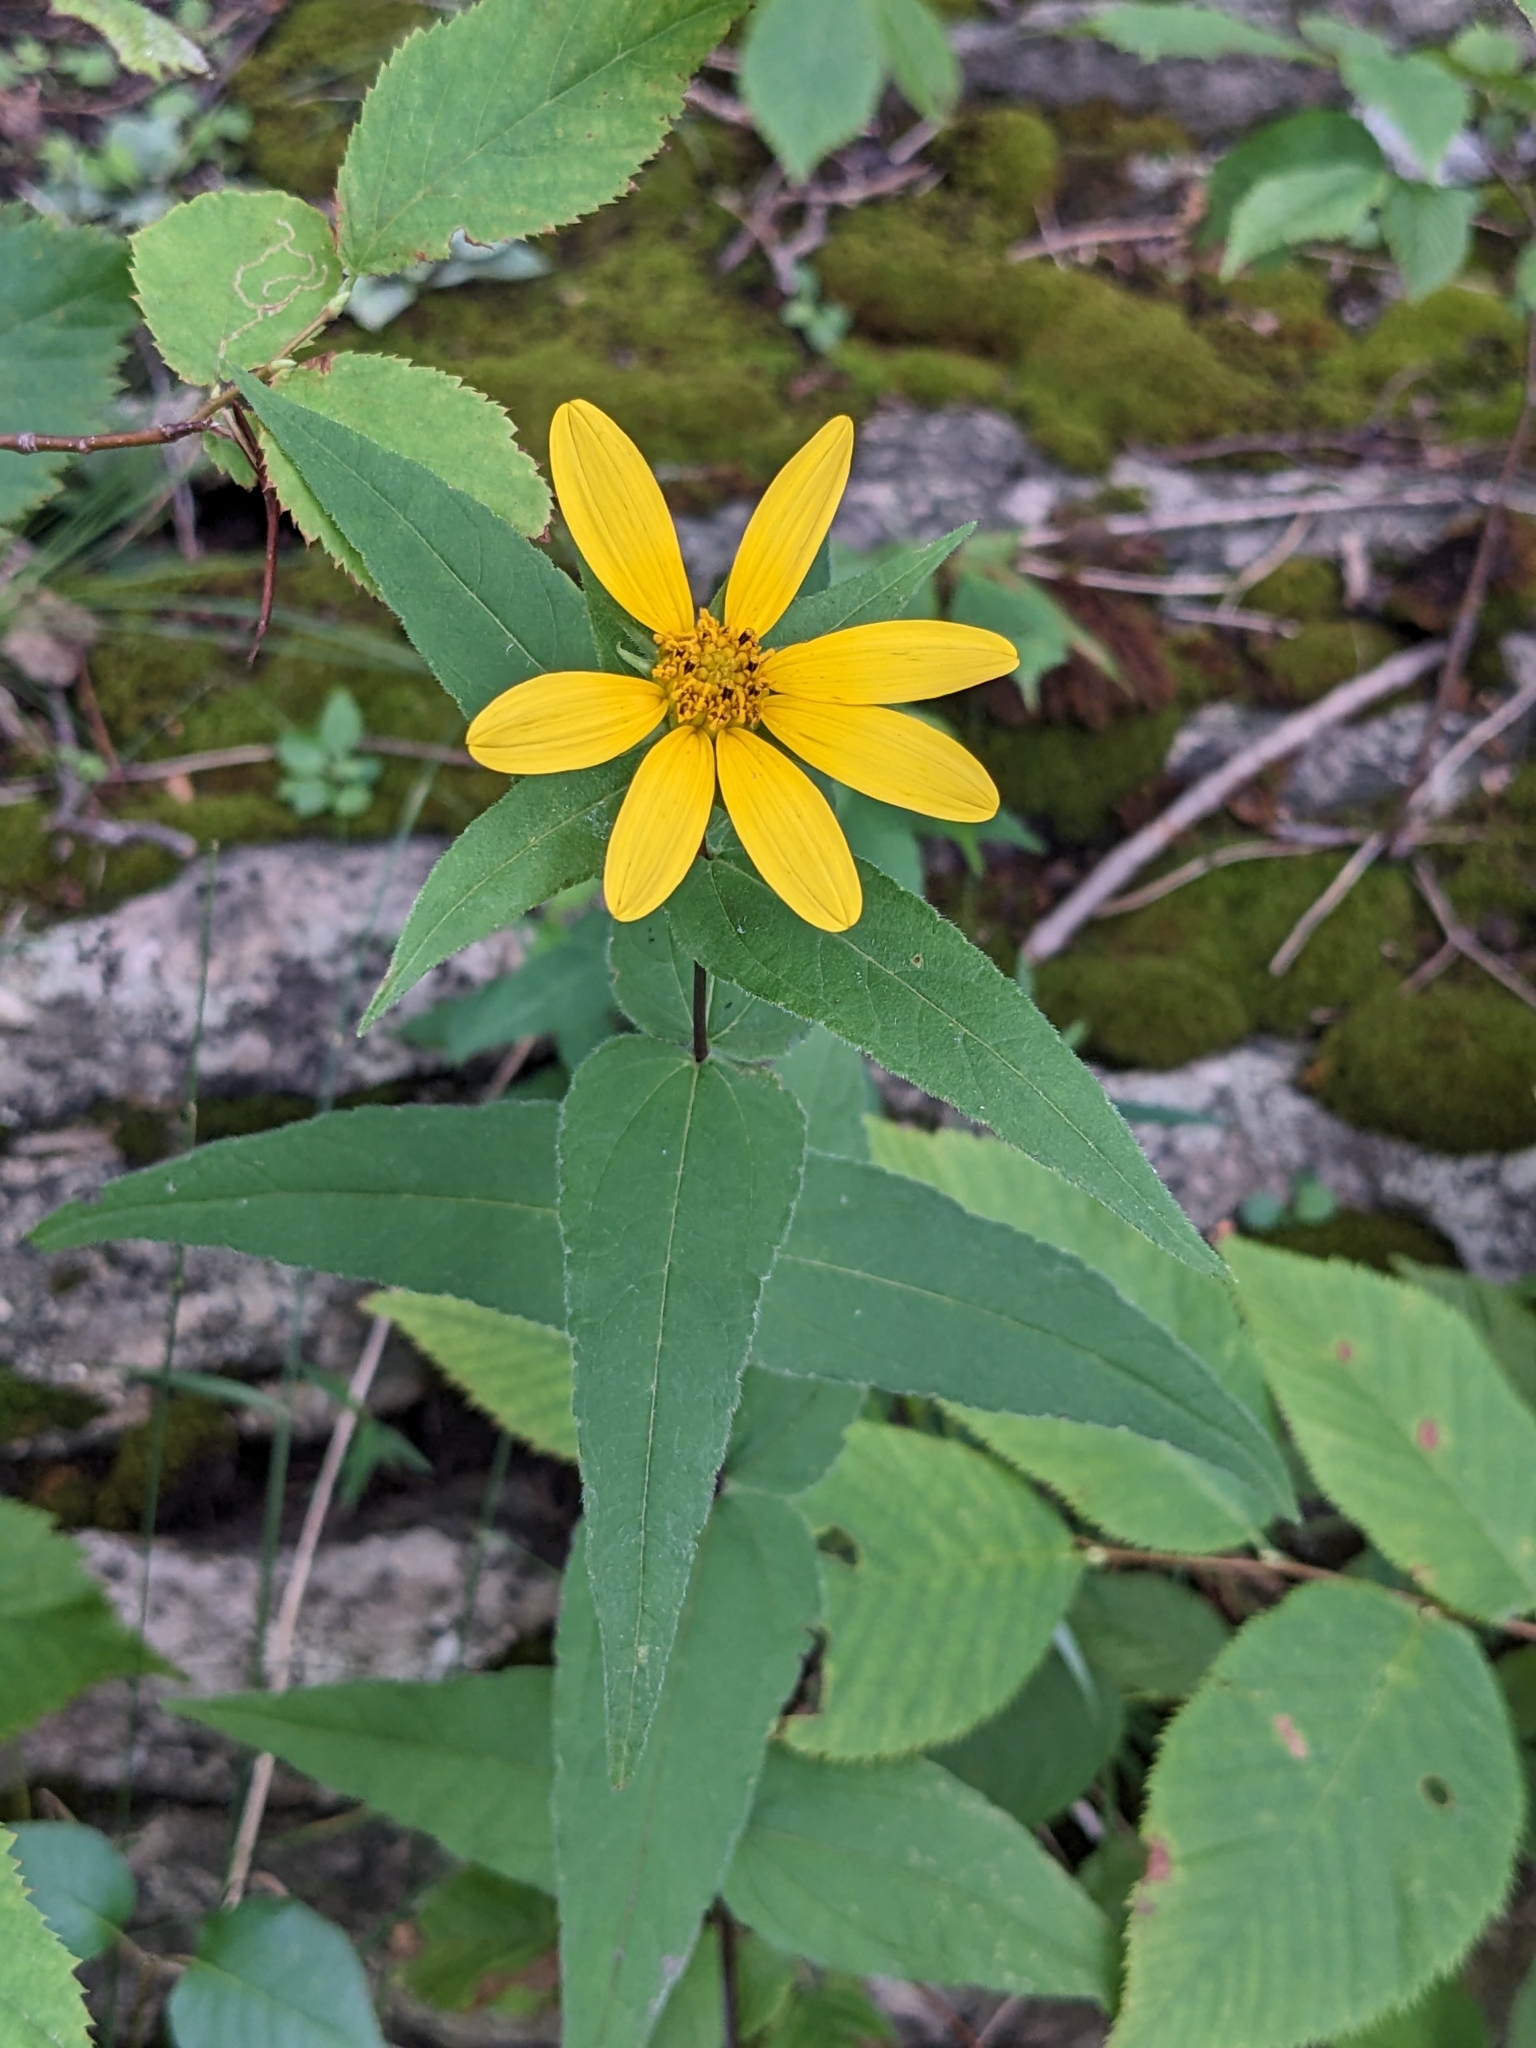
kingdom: Plantae
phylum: Tracheophyta
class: Magnoliopsida
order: Asterales
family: Asteraceae
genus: Helianthus
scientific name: Helianthus divaricatus
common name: Divergent sunflower
